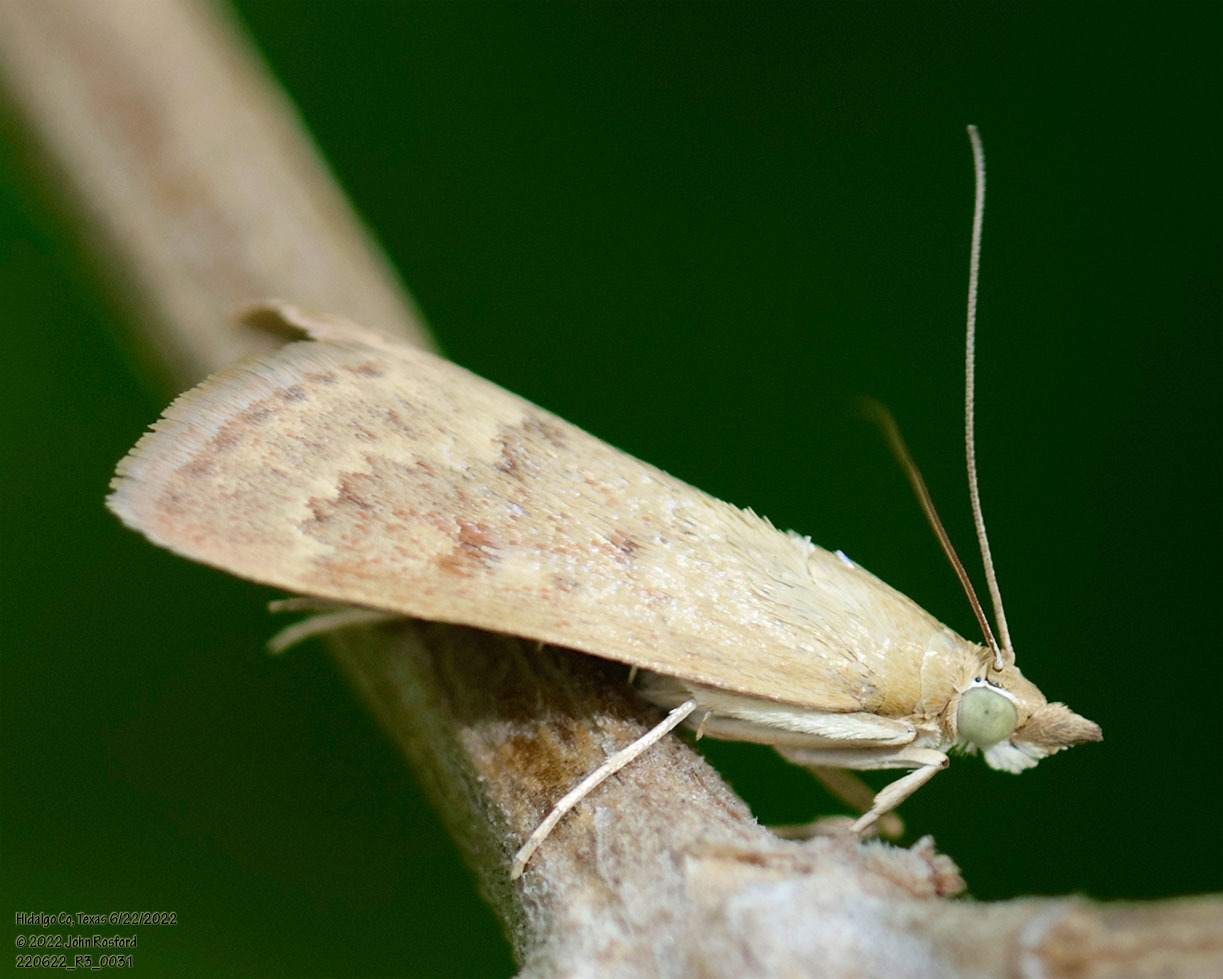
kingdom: Animalia
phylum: Arthropoda
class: Insecta
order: Lepidoptera
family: Crambidae
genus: Achyra
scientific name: Achyra rantalis
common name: Garden webworm
